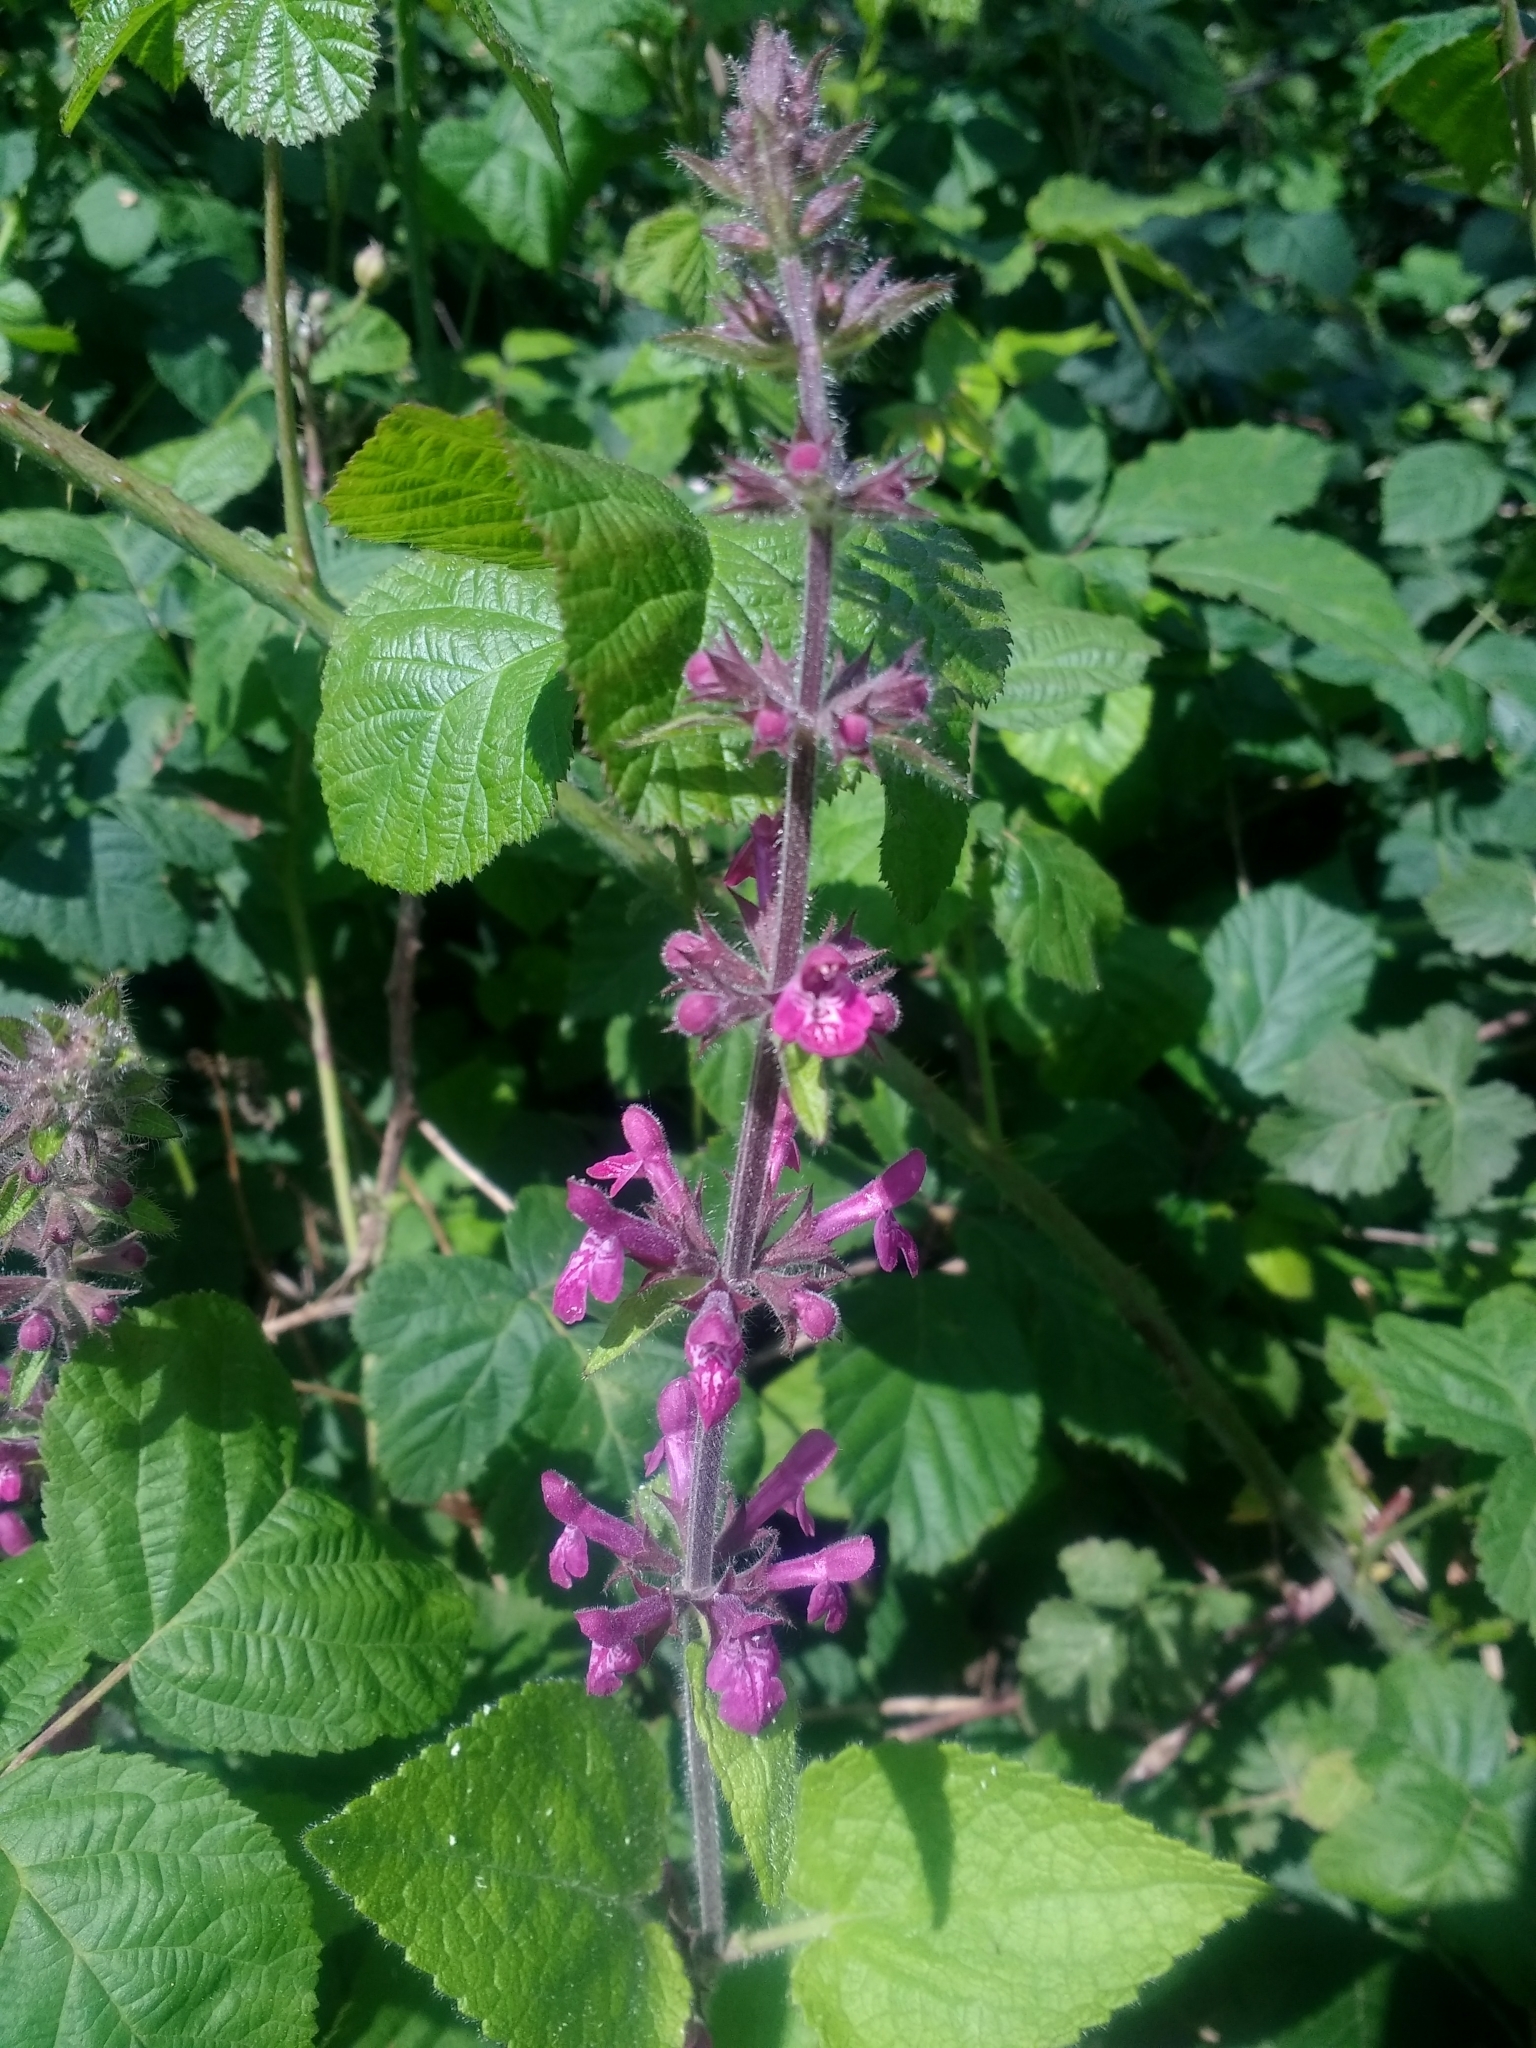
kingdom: Plantae
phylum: Tracheophyta
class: Magnoliopsida
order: Lamiales
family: Lamiaceae
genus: Stachys
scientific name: Stachys sylvatica
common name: Hedge woundwort
